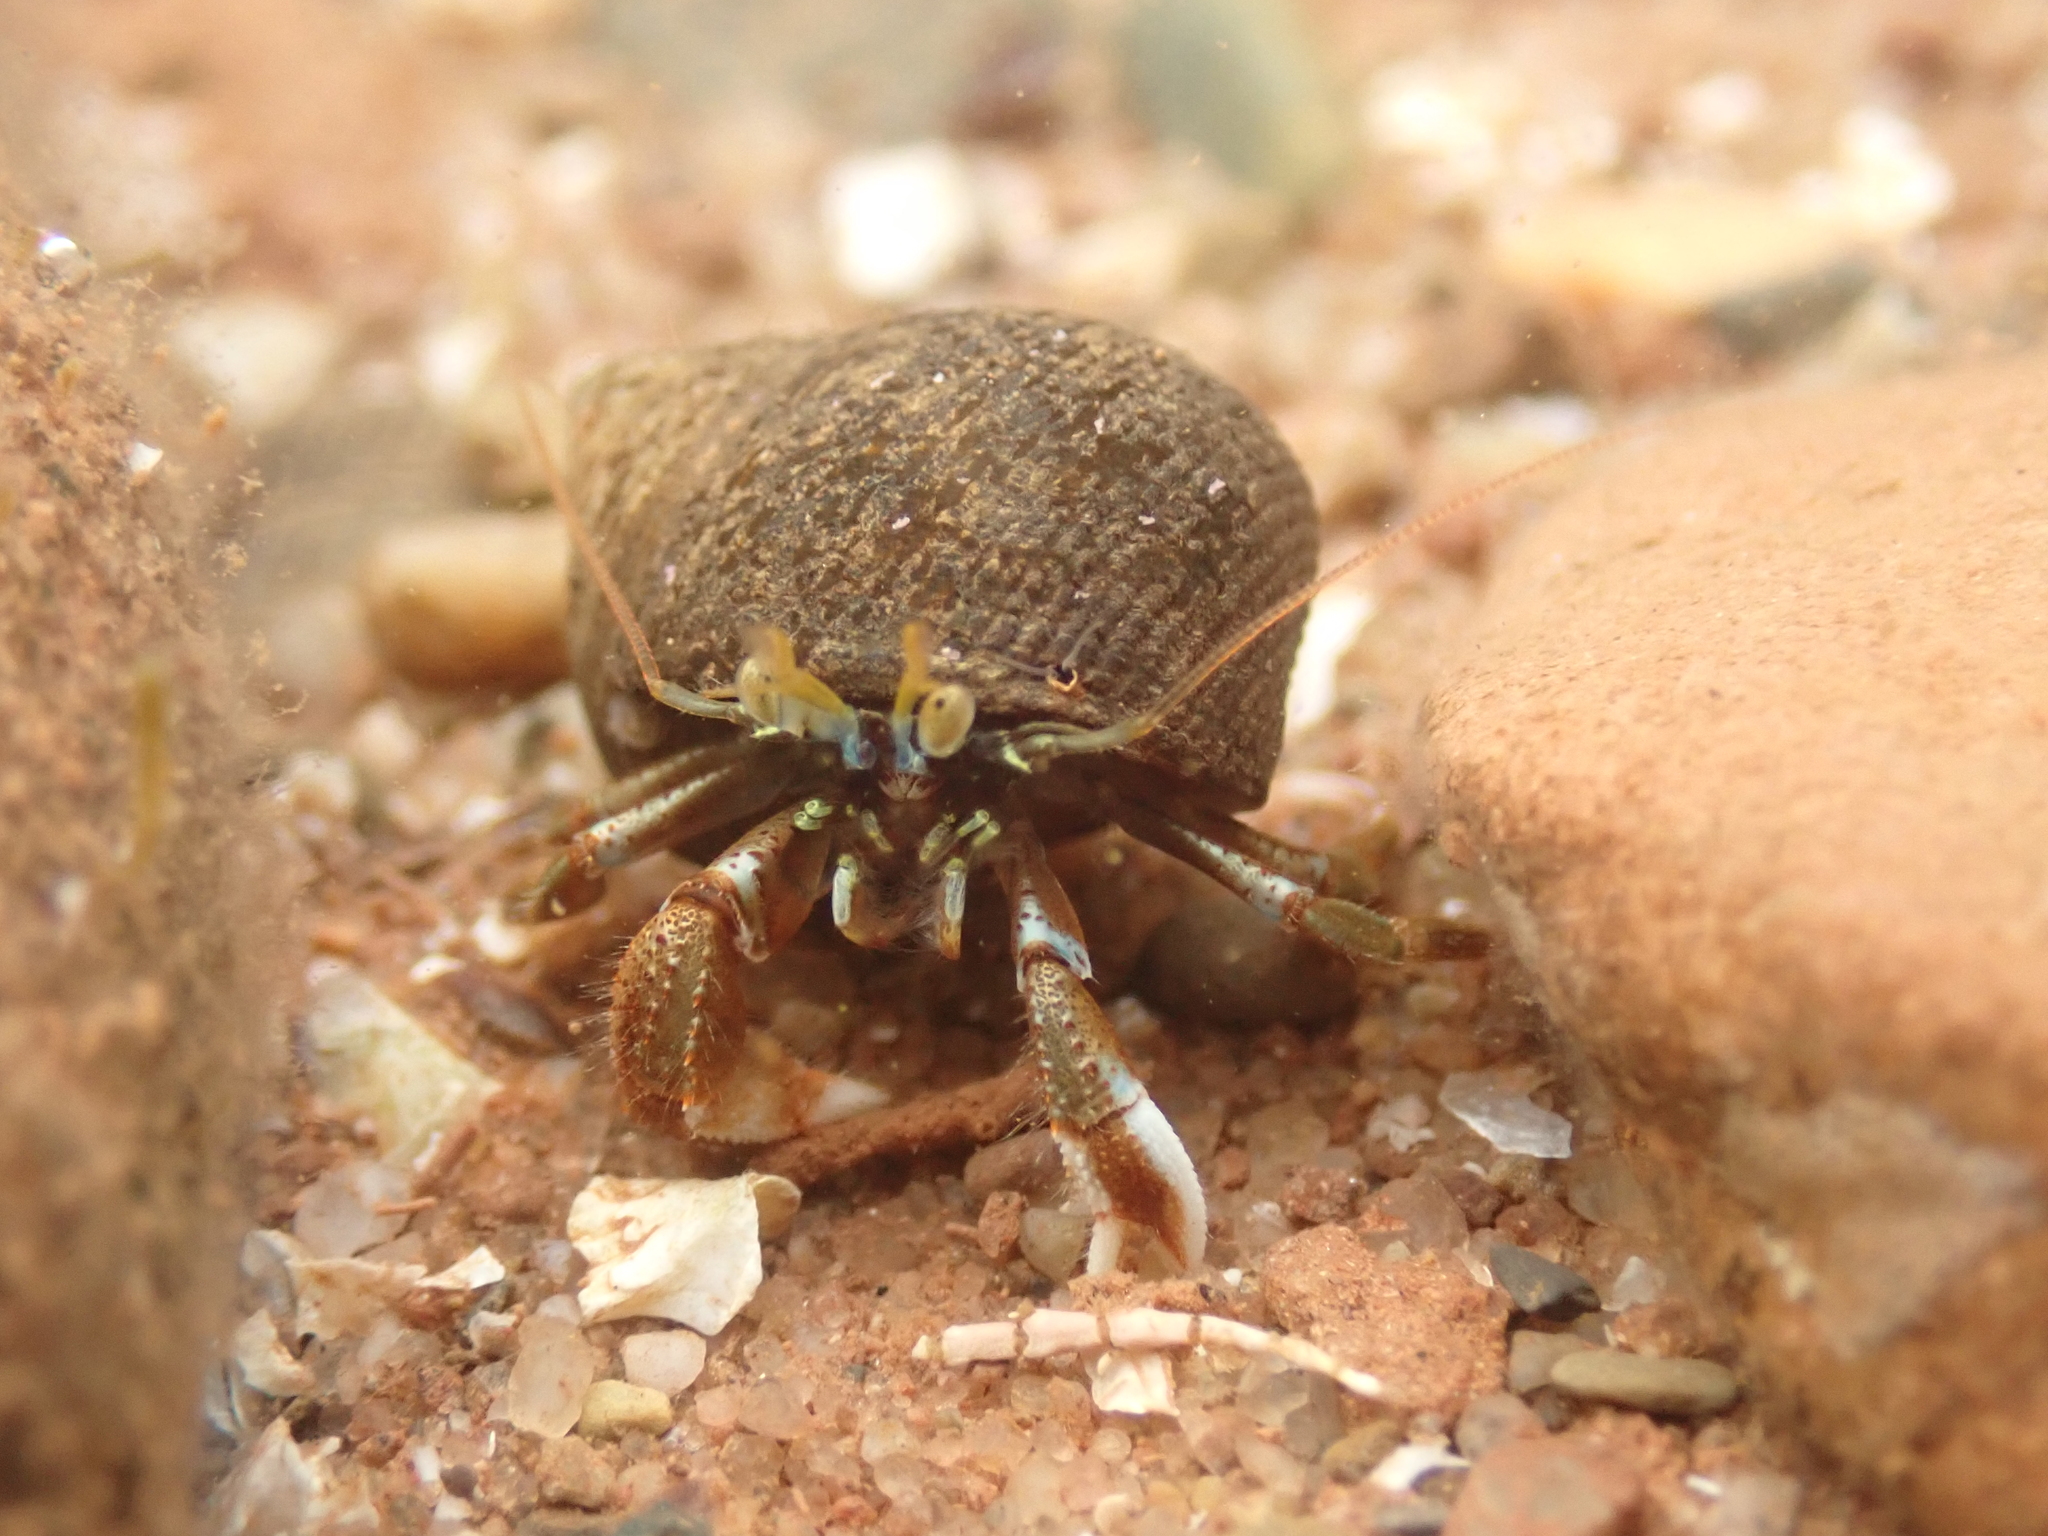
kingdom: Animalia
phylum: Arthropoda
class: Malacostraca
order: Decapoda
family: Paguridae
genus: Pagurus
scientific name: Pagurus acadianus
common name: Acadian hermit crab
